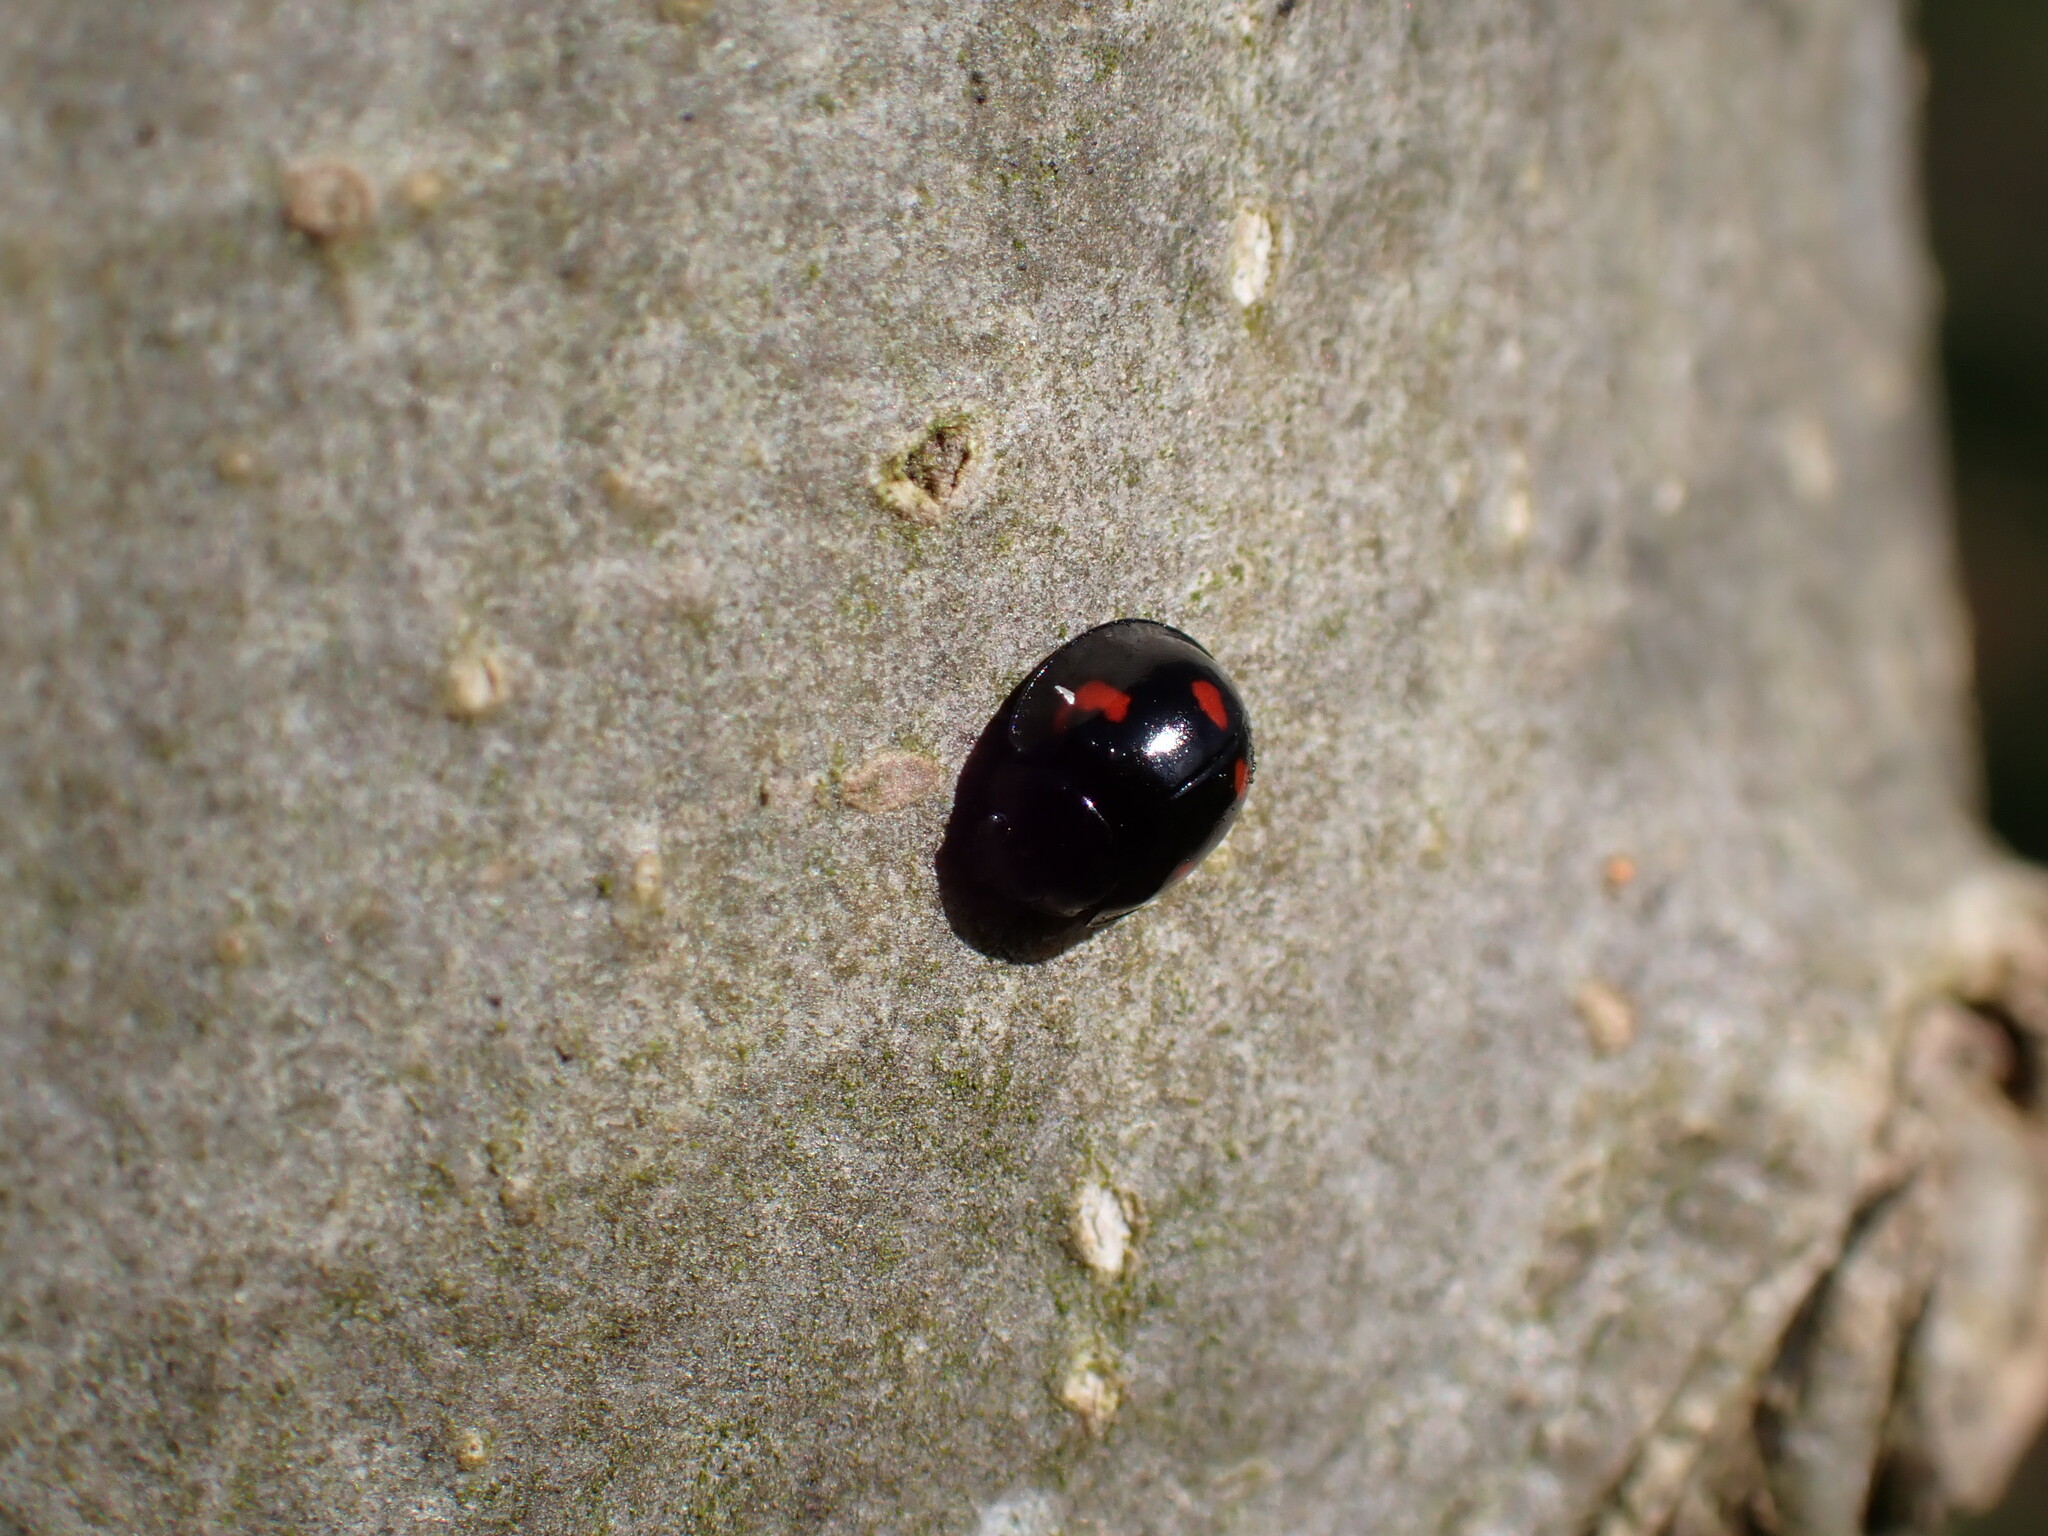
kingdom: Animalia
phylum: Arthropoda
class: Insecta
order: Coleoptera
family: Coccinellidae
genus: Brumus
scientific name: Brumus quadripustulatus
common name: Ladybird beetle
